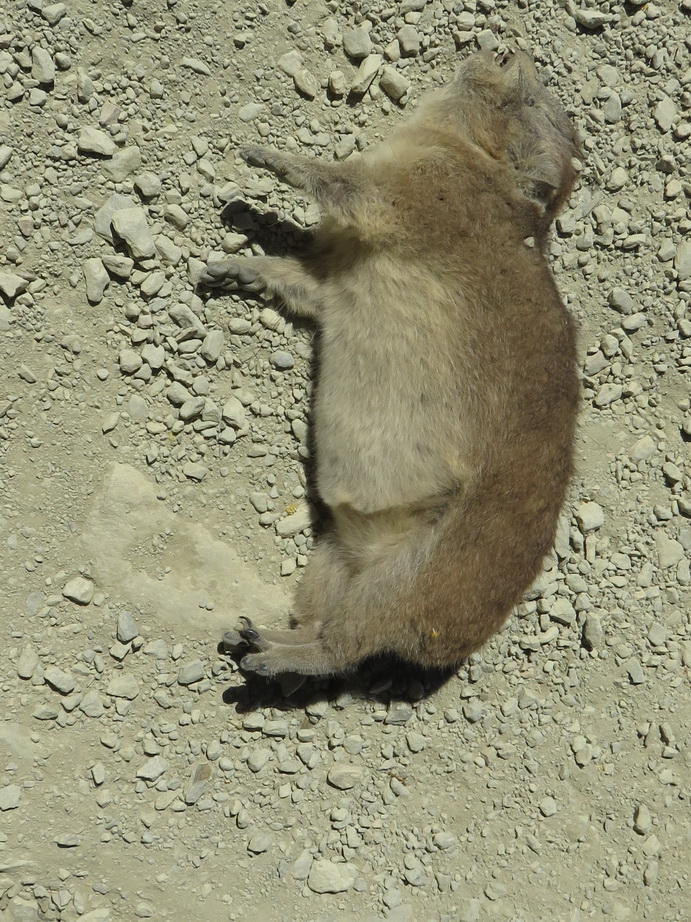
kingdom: Animalia
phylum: Chordata
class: Mammalia
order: Hyracoidea
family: Procaviidae
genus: Procavia
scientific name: Procavia capensis
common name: Rock hyrax
